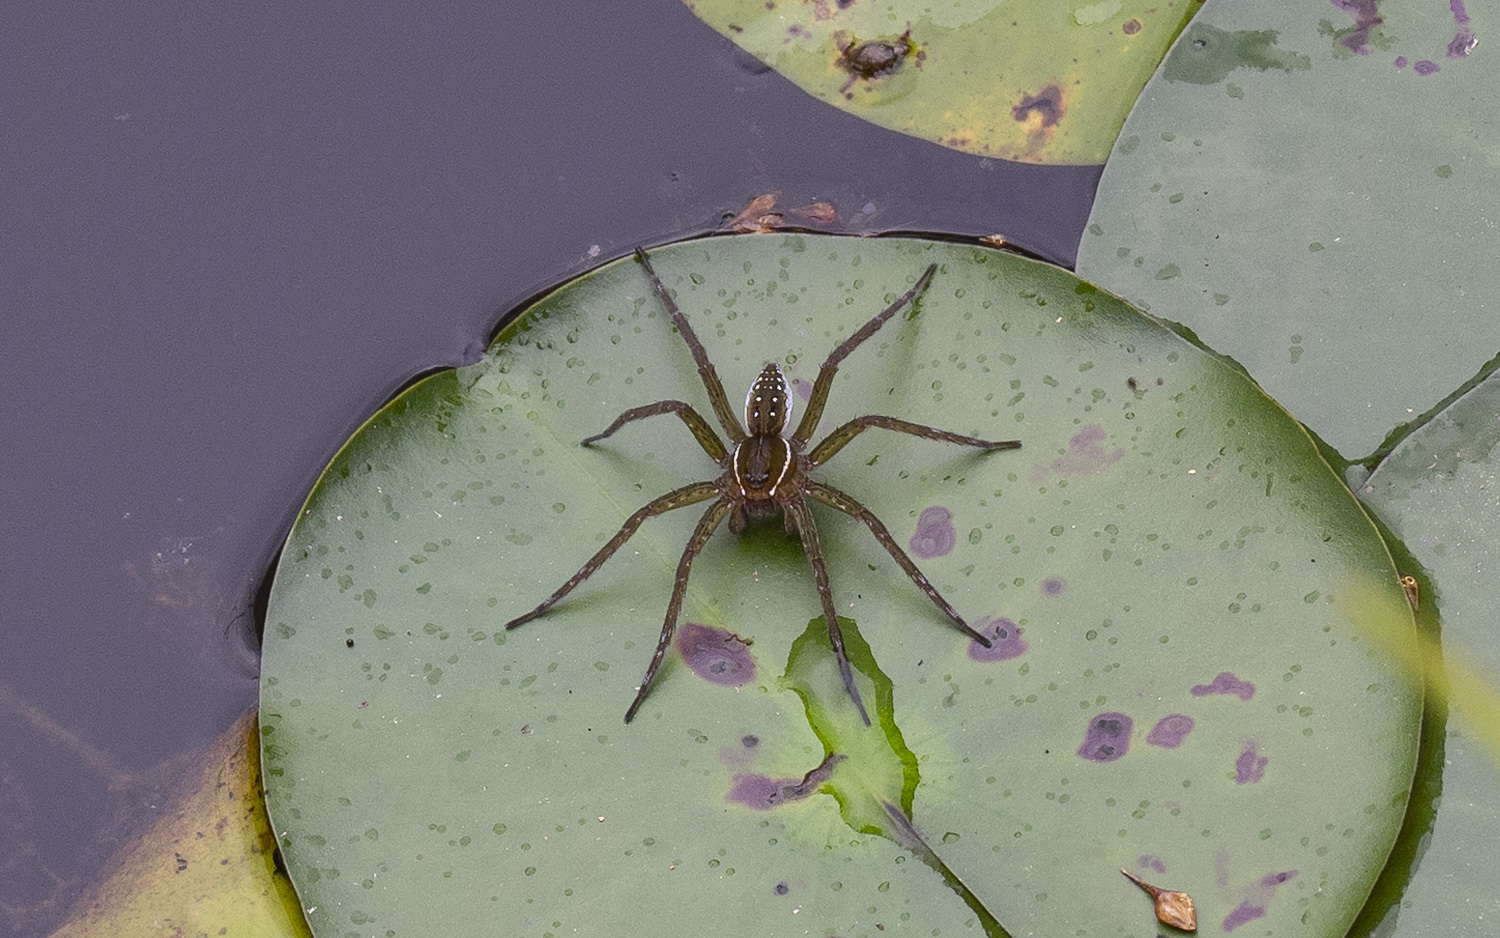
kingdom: Animalia
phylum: Arthropoda
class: Arachnida
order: Araneae
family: Pisauridae
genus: Dolomedes
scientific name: Dolomedes triton
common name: Six-spotted fishing spider
